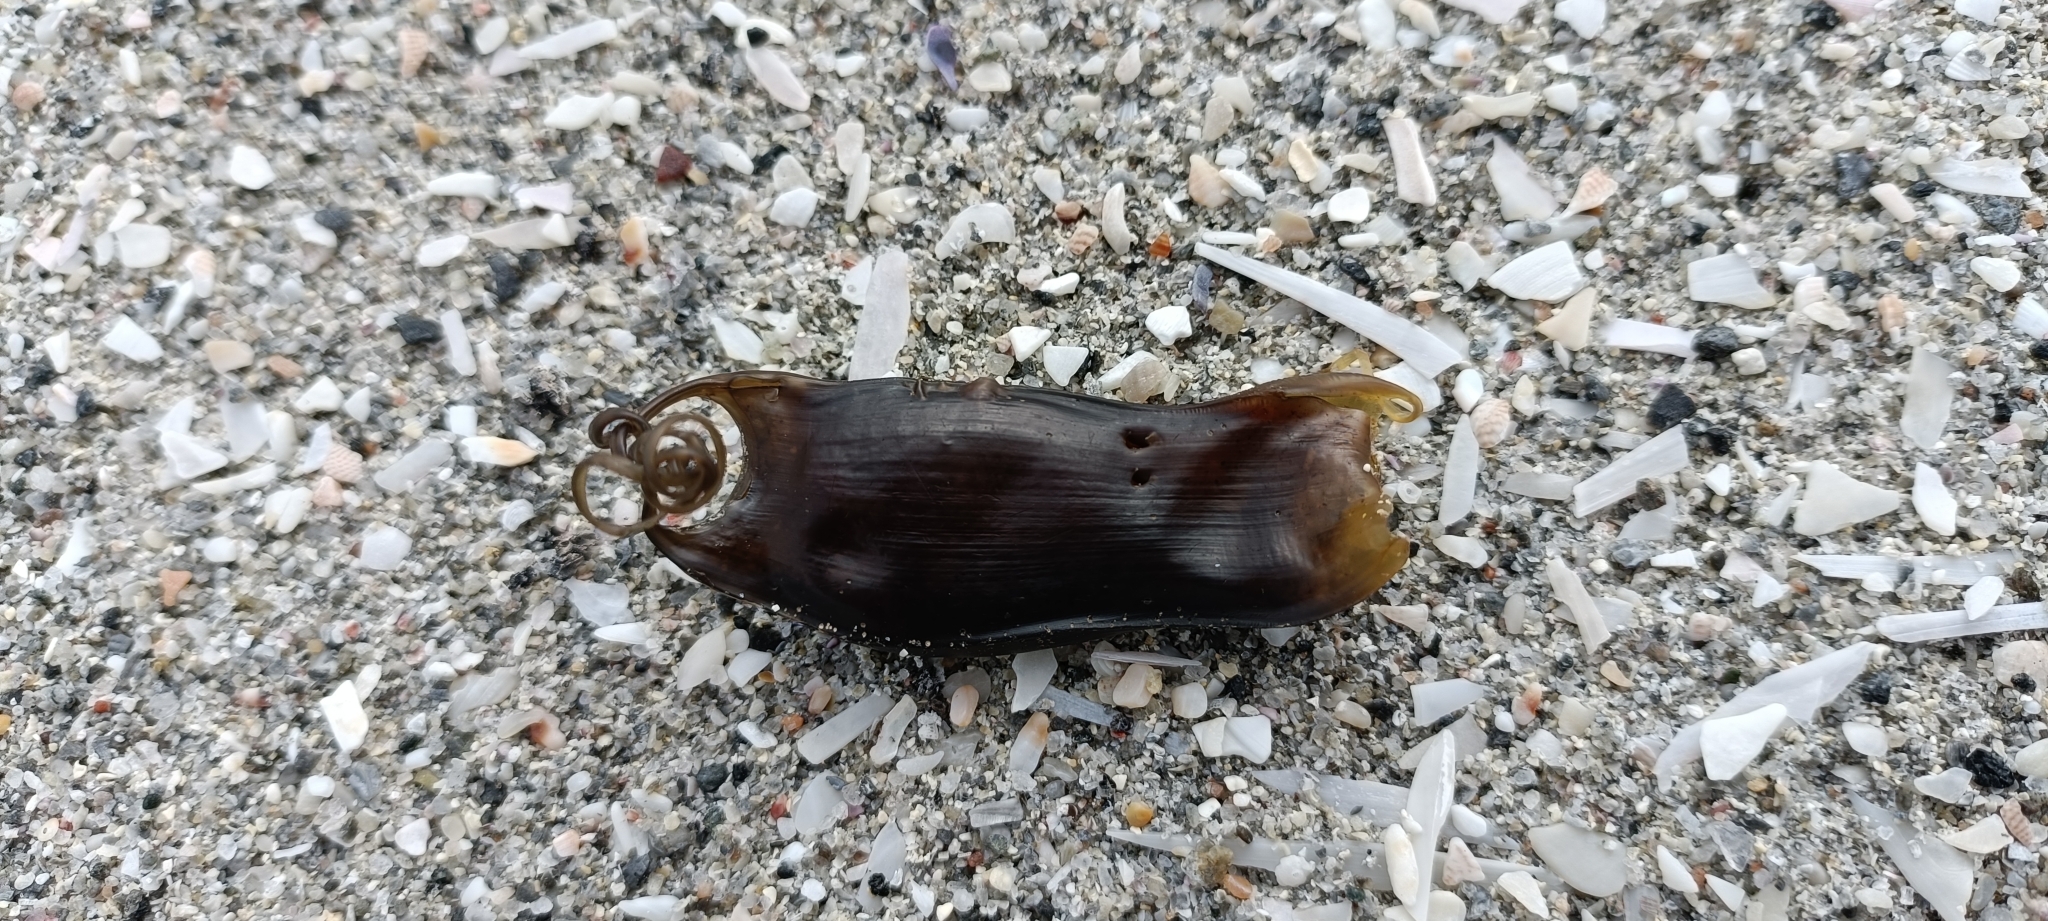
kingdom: Animalia
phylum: Chordata
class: Elasmobranchii
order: Carcharhiniformes
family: Scyliorhinidae
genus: Scyliorhinus
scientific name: Scyliorhinus canicula
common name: Lesser spotted dogfish
